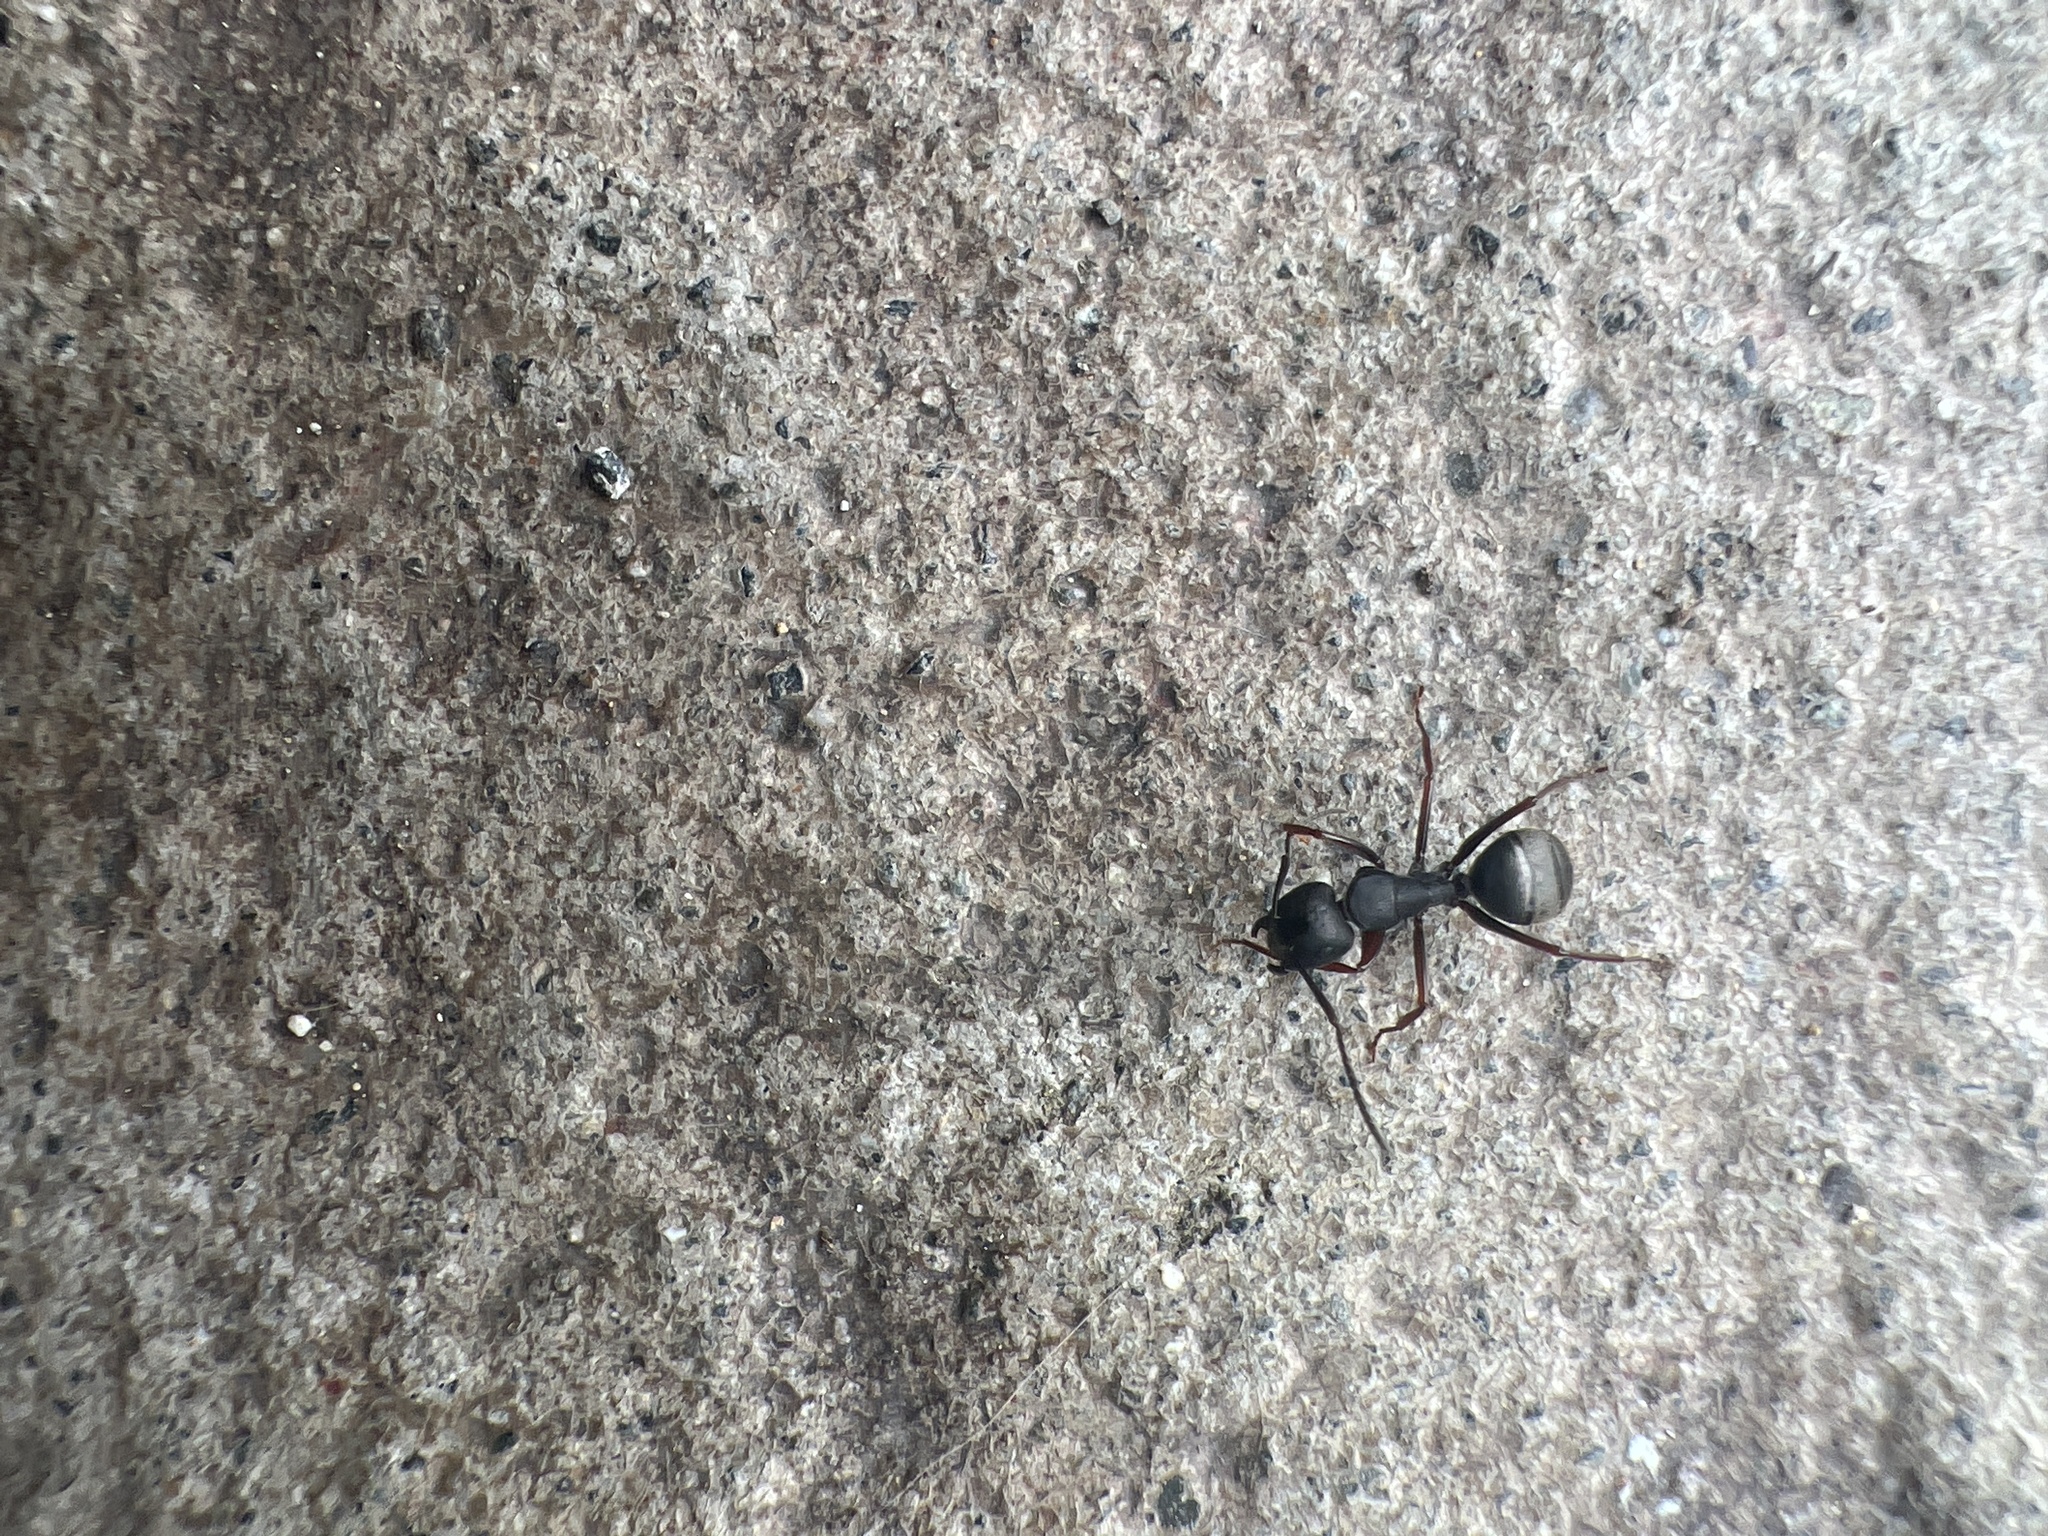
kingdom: Animalia
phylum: Arthropoda
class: Insecta
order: Hymenoptera
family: Formicidae
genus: Camponotus
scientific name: Camponotus modoc
